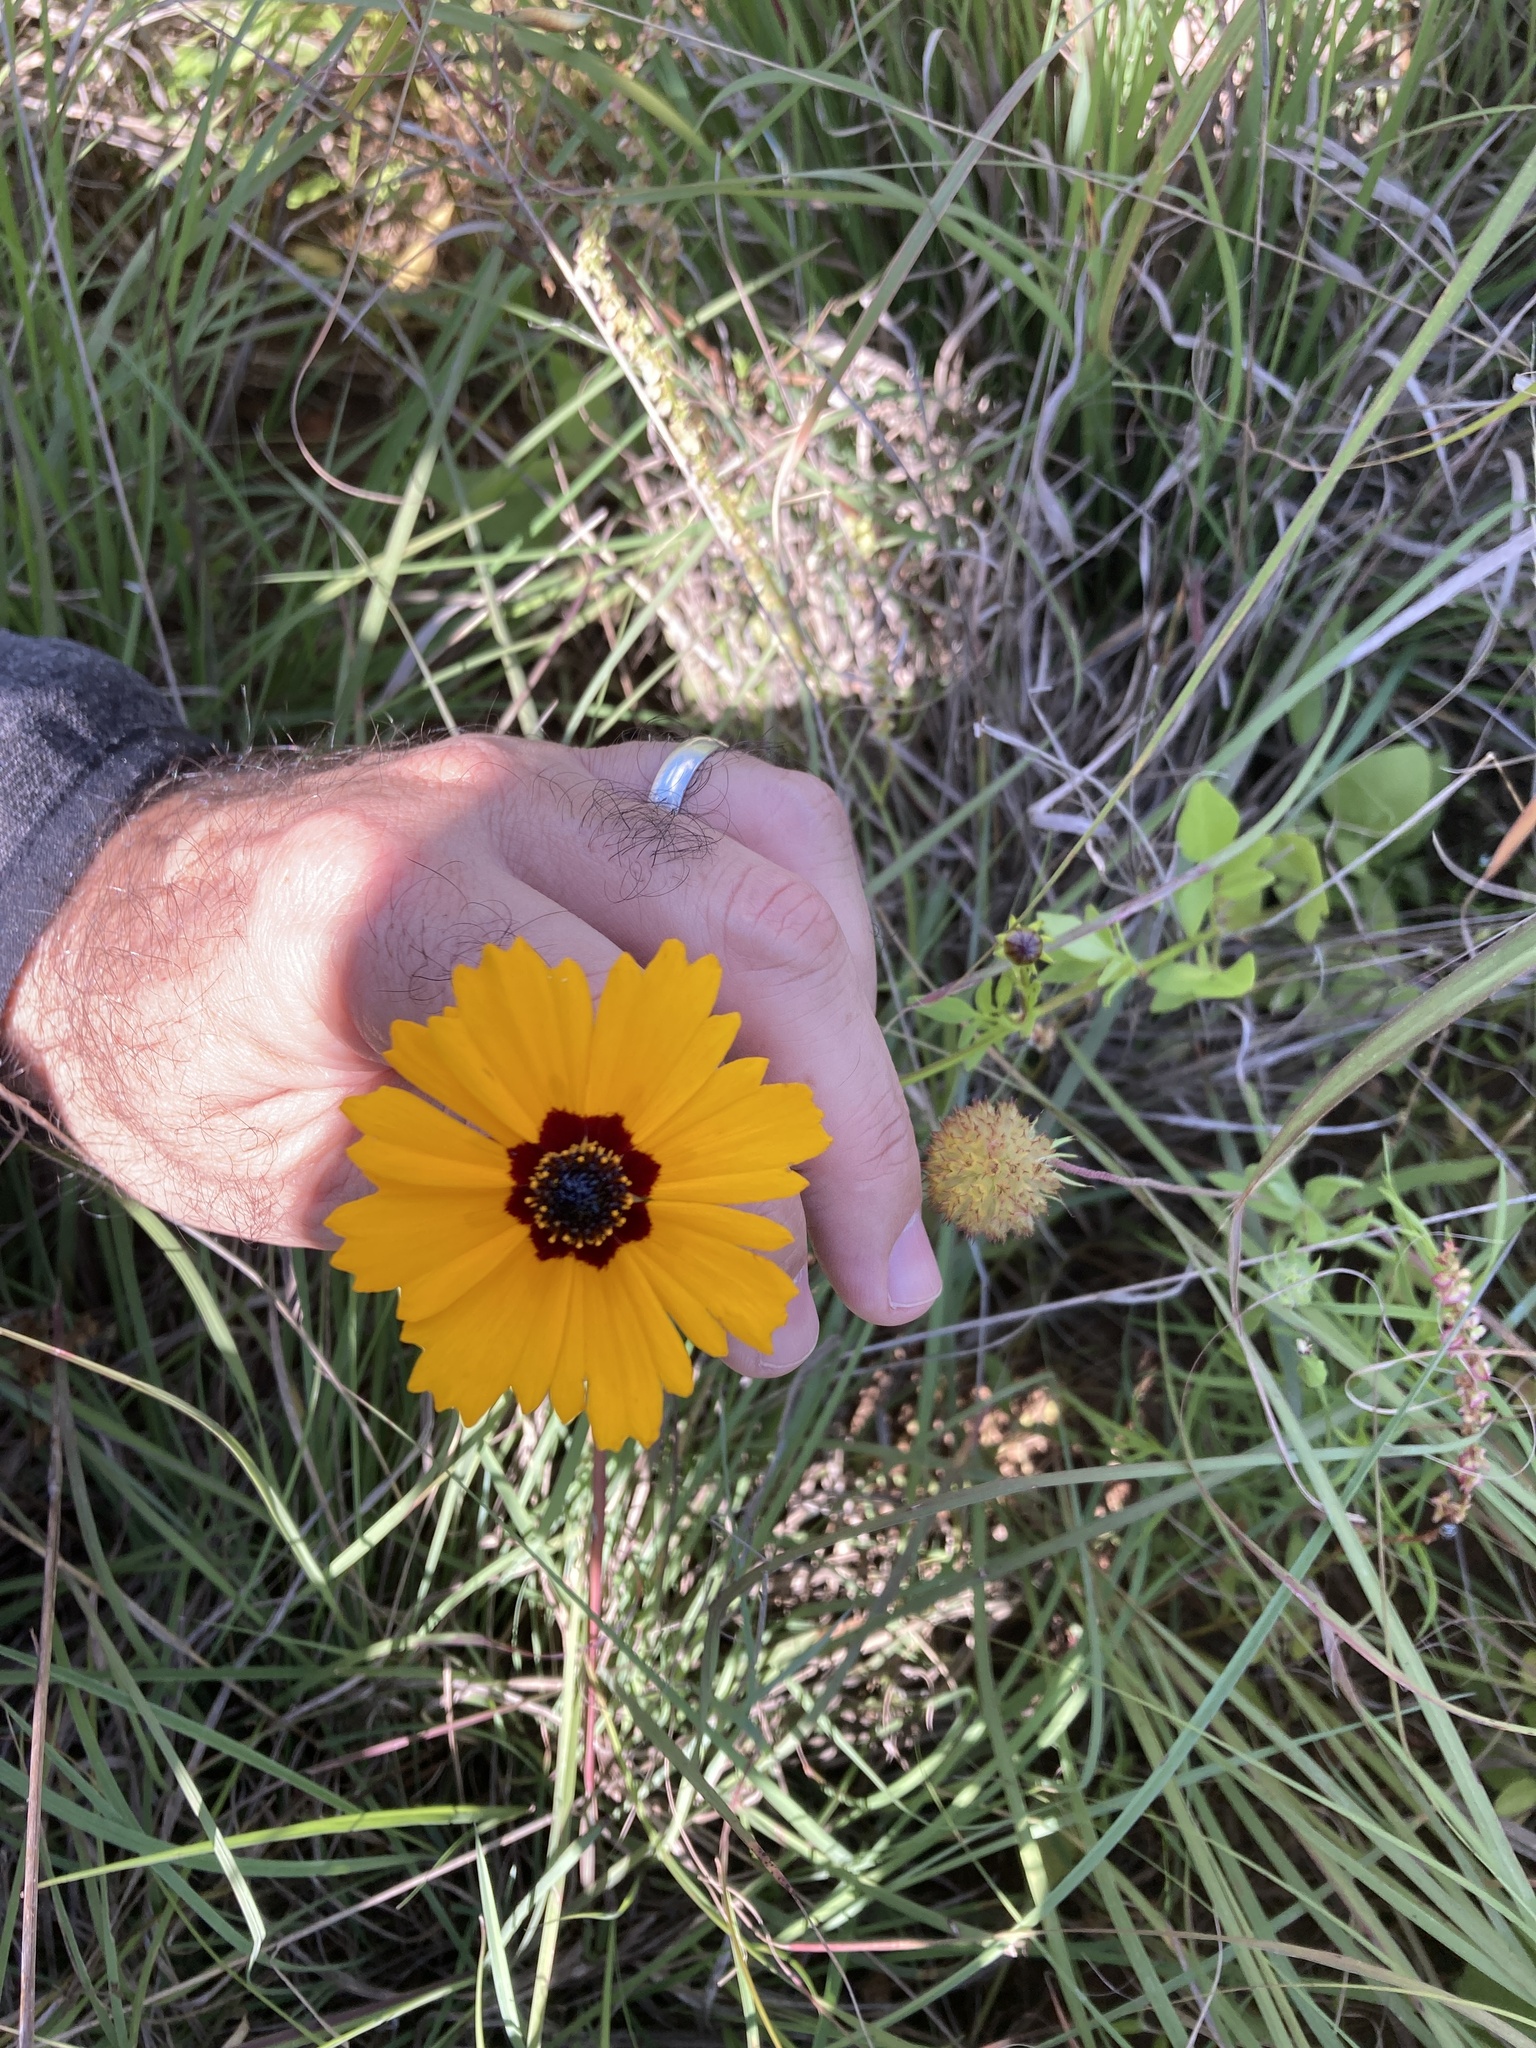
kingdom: Plantae
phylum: Tracheophyta
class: Magnoliopsida
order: Asterales
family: Asteraceae
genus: Coreopsis
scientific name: Coreopsis basalis
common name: Golden-mane coreopsis
